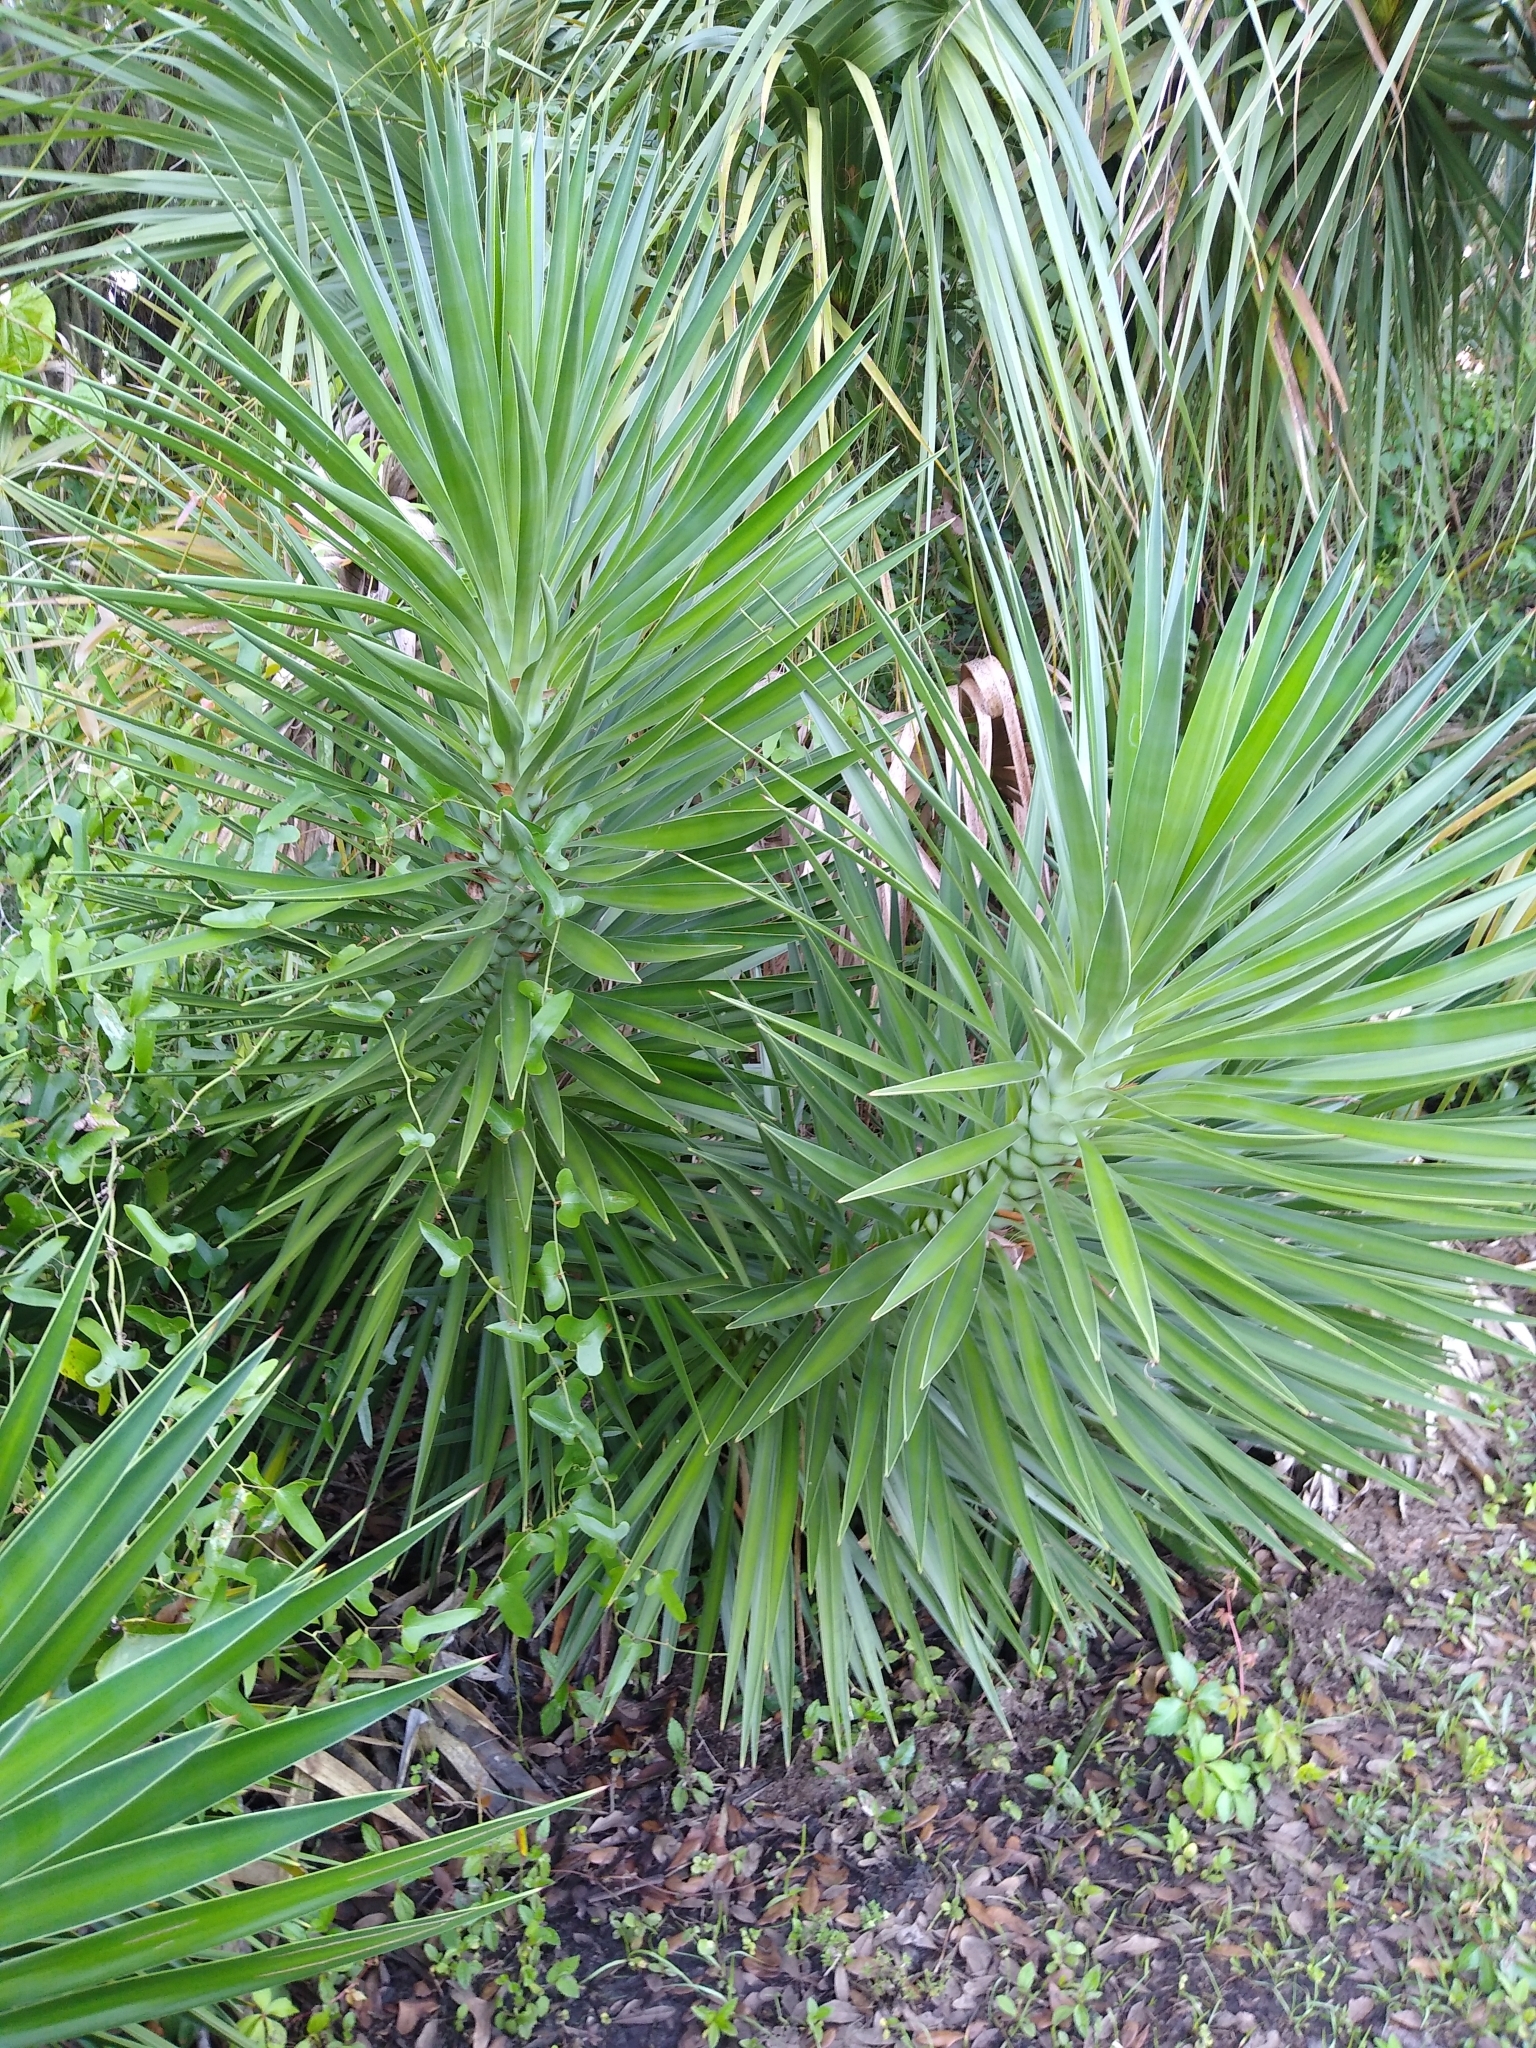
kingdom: Plantae
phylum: Tracheophyta
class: Liliopsida
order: Asparagales
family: Asparagaceae
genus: Yucca
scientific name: Yucca aloifolia
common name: Aloe yucca
